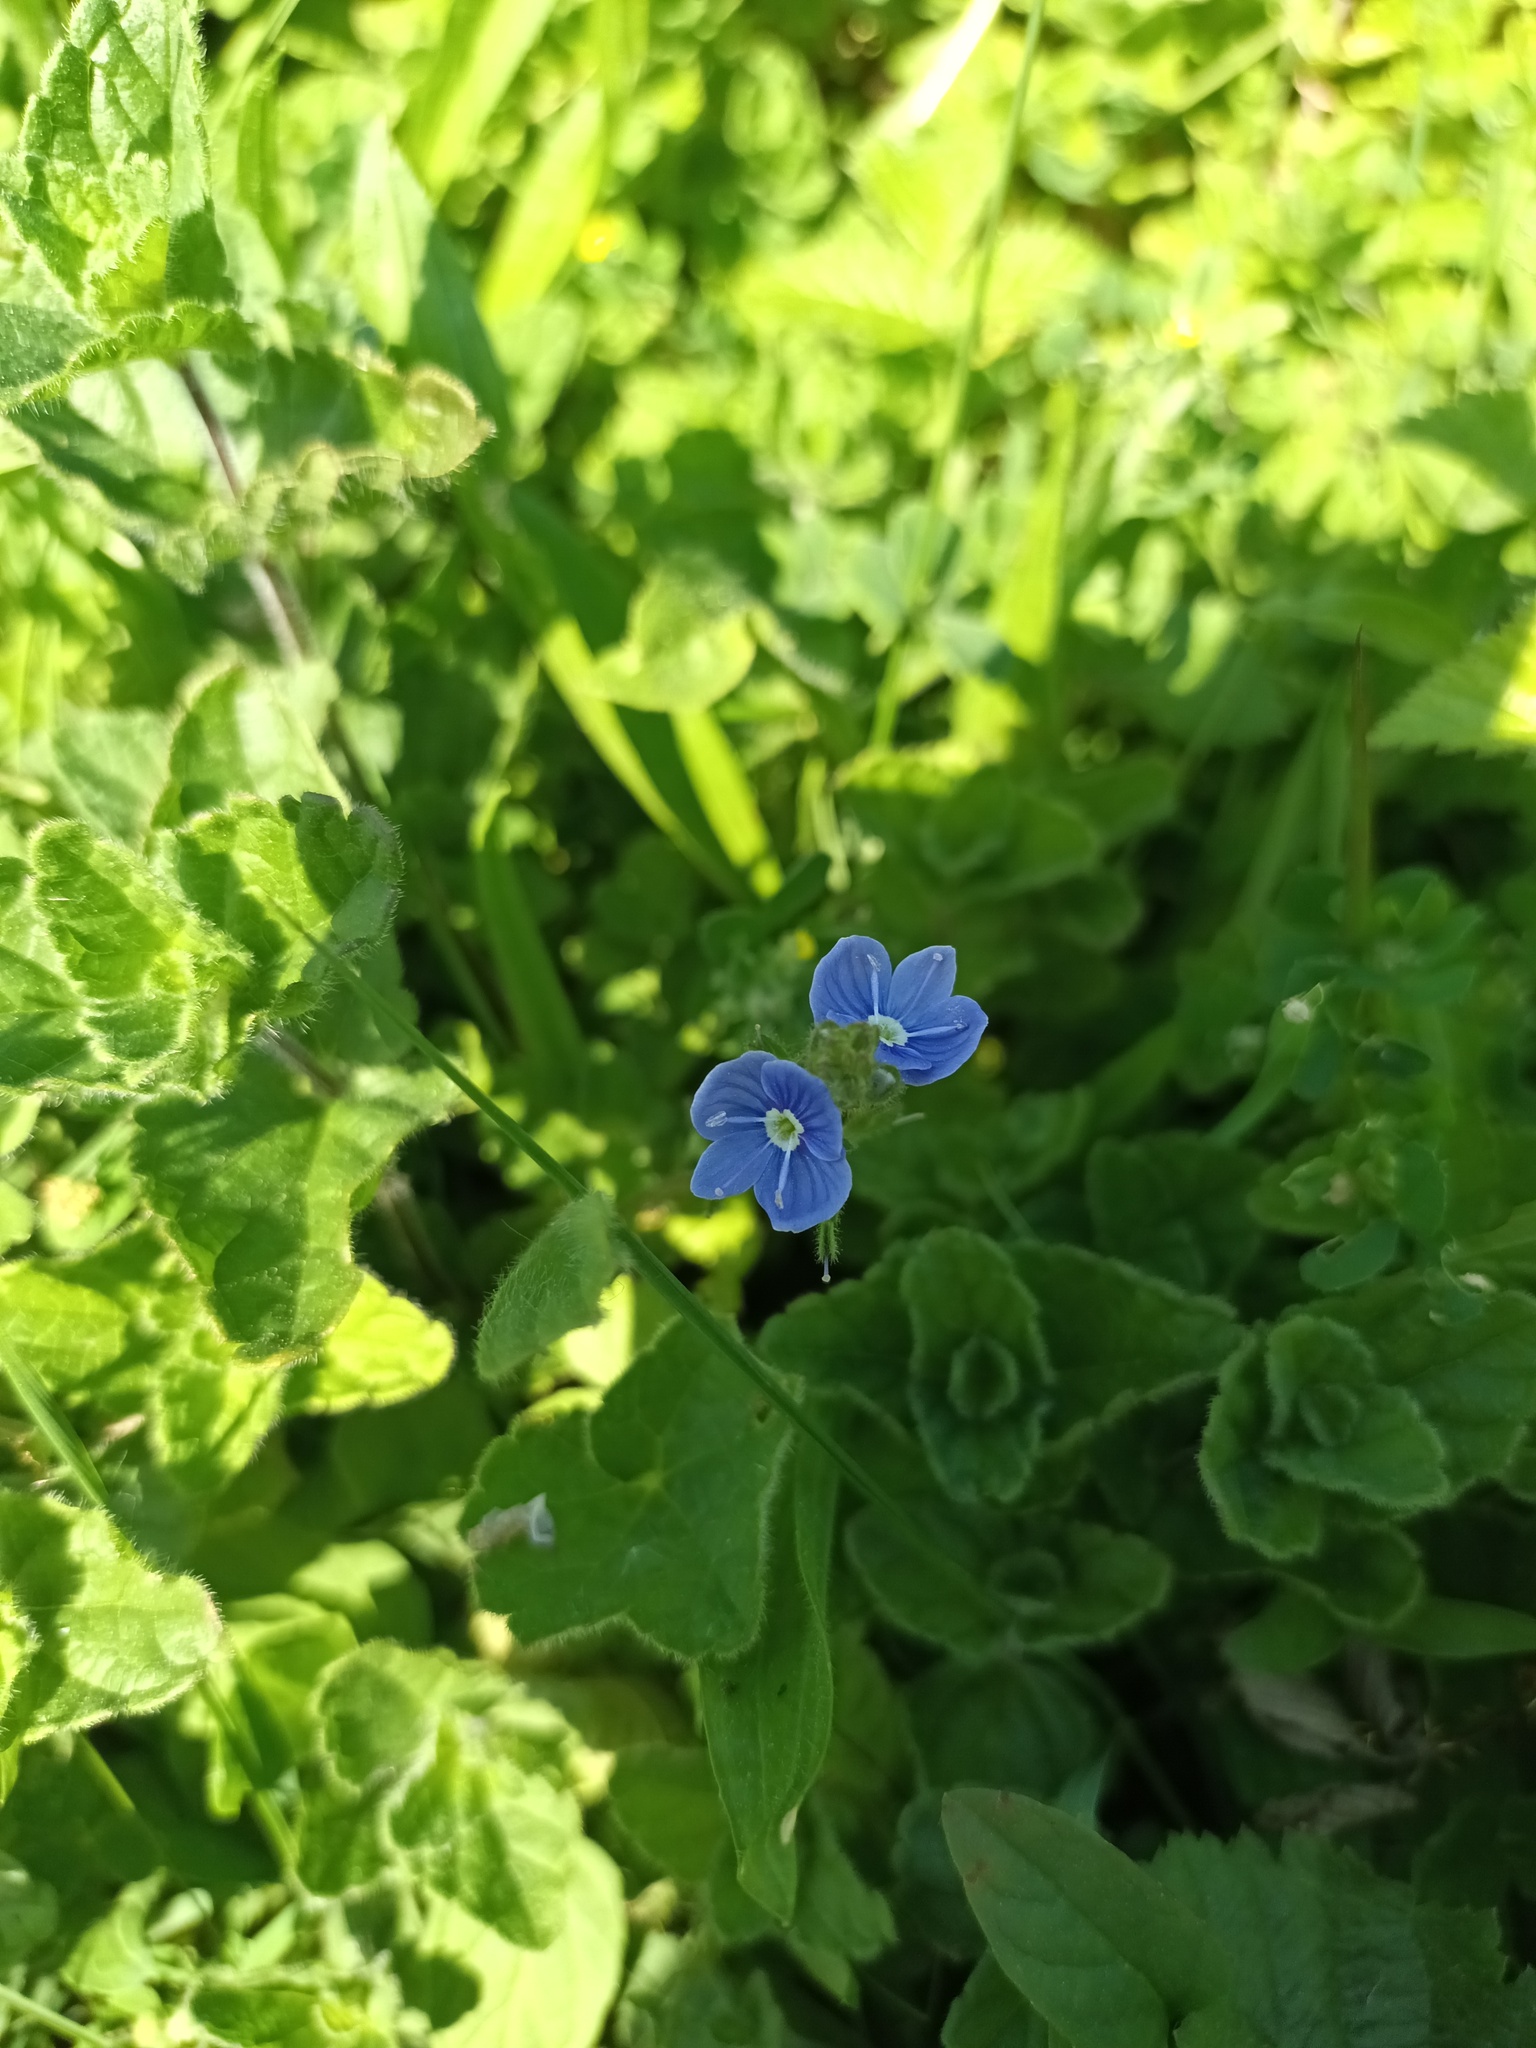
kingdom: Plantae
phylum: Tracheophyta
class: Magnoliopsida
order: Lamiales
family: Plantaginaceae
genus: Veronica
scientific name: Veronica chamaedrys
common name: Germander speedwell
